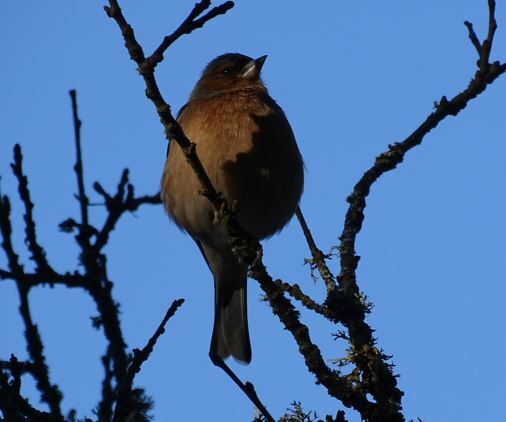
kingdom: Animalia
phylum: Chordata
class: Aves
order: Passeriformes
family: Fringillidae
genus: Fringilla
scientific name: Fringilla coelebs
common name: Common chaffinch
